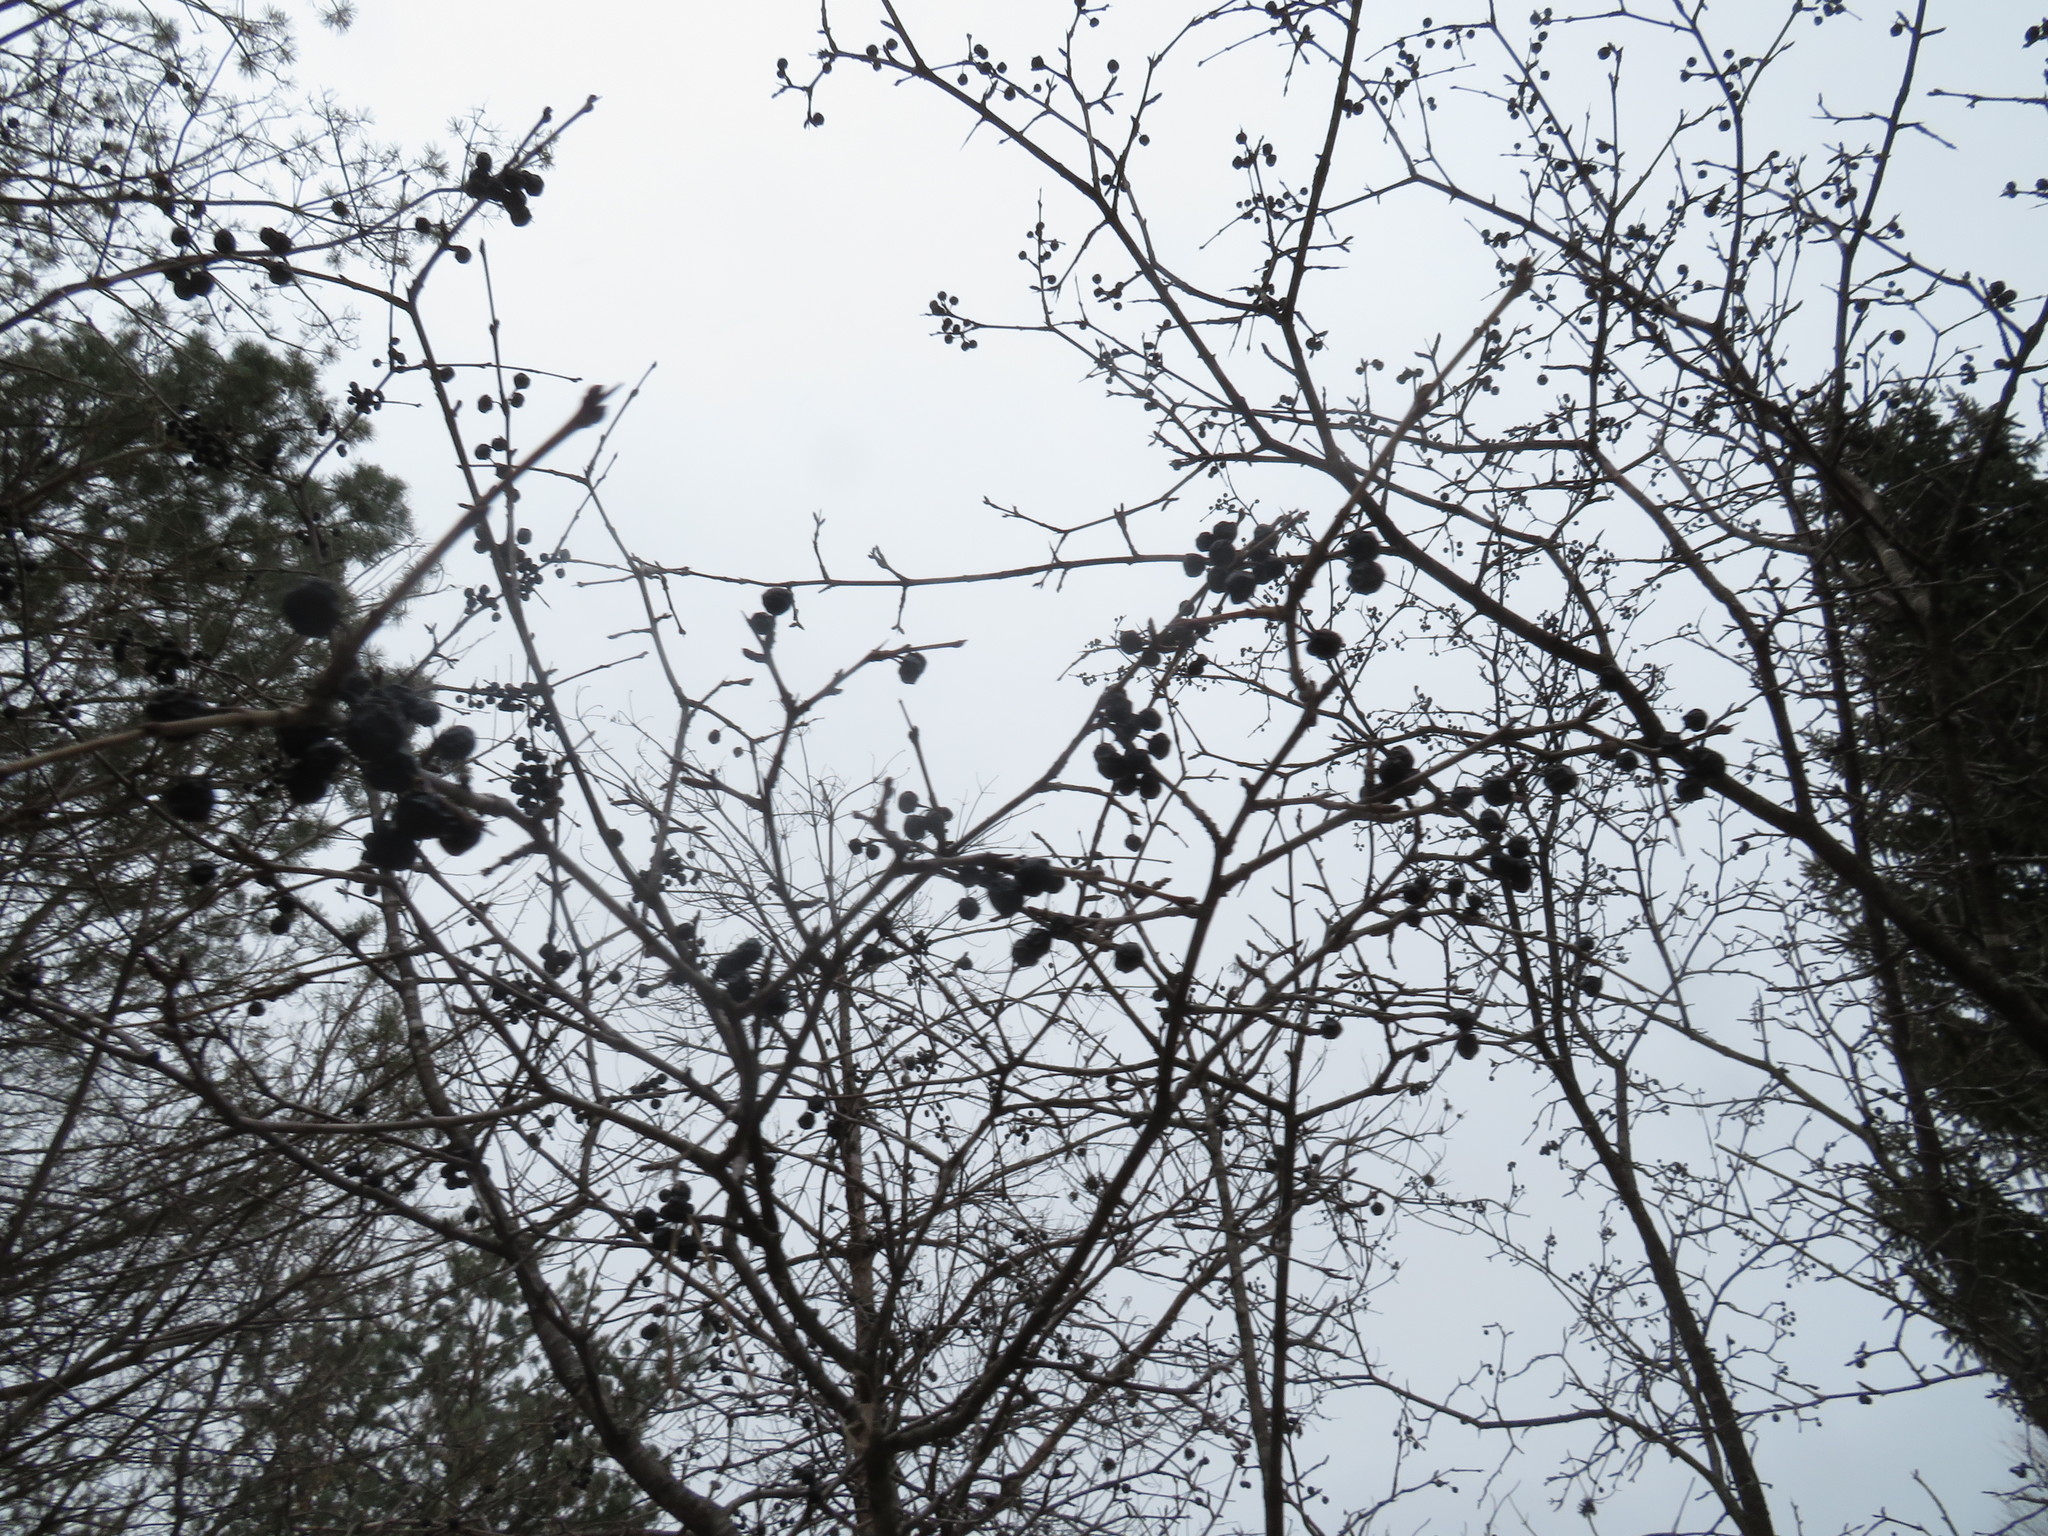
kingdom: Plantae
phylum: Tracheophyta
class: Magnoliopsida
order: Rosales
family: Rhamnaceae
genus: Rhamnus
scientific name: Rhamnus cathartica
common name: Common buckthorn
